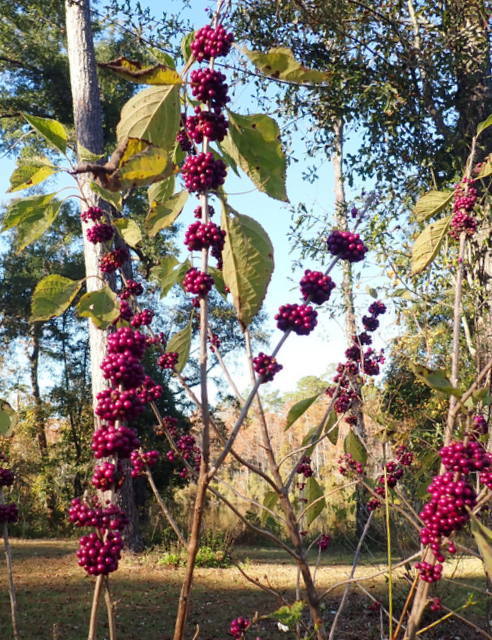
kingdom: Plantae
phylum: Tracheophyta
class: Magnoliopsida
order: Lamiales
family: Lamiaceae
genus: Callicarpa
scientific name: Callicarpa americana
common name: American beautyberry
